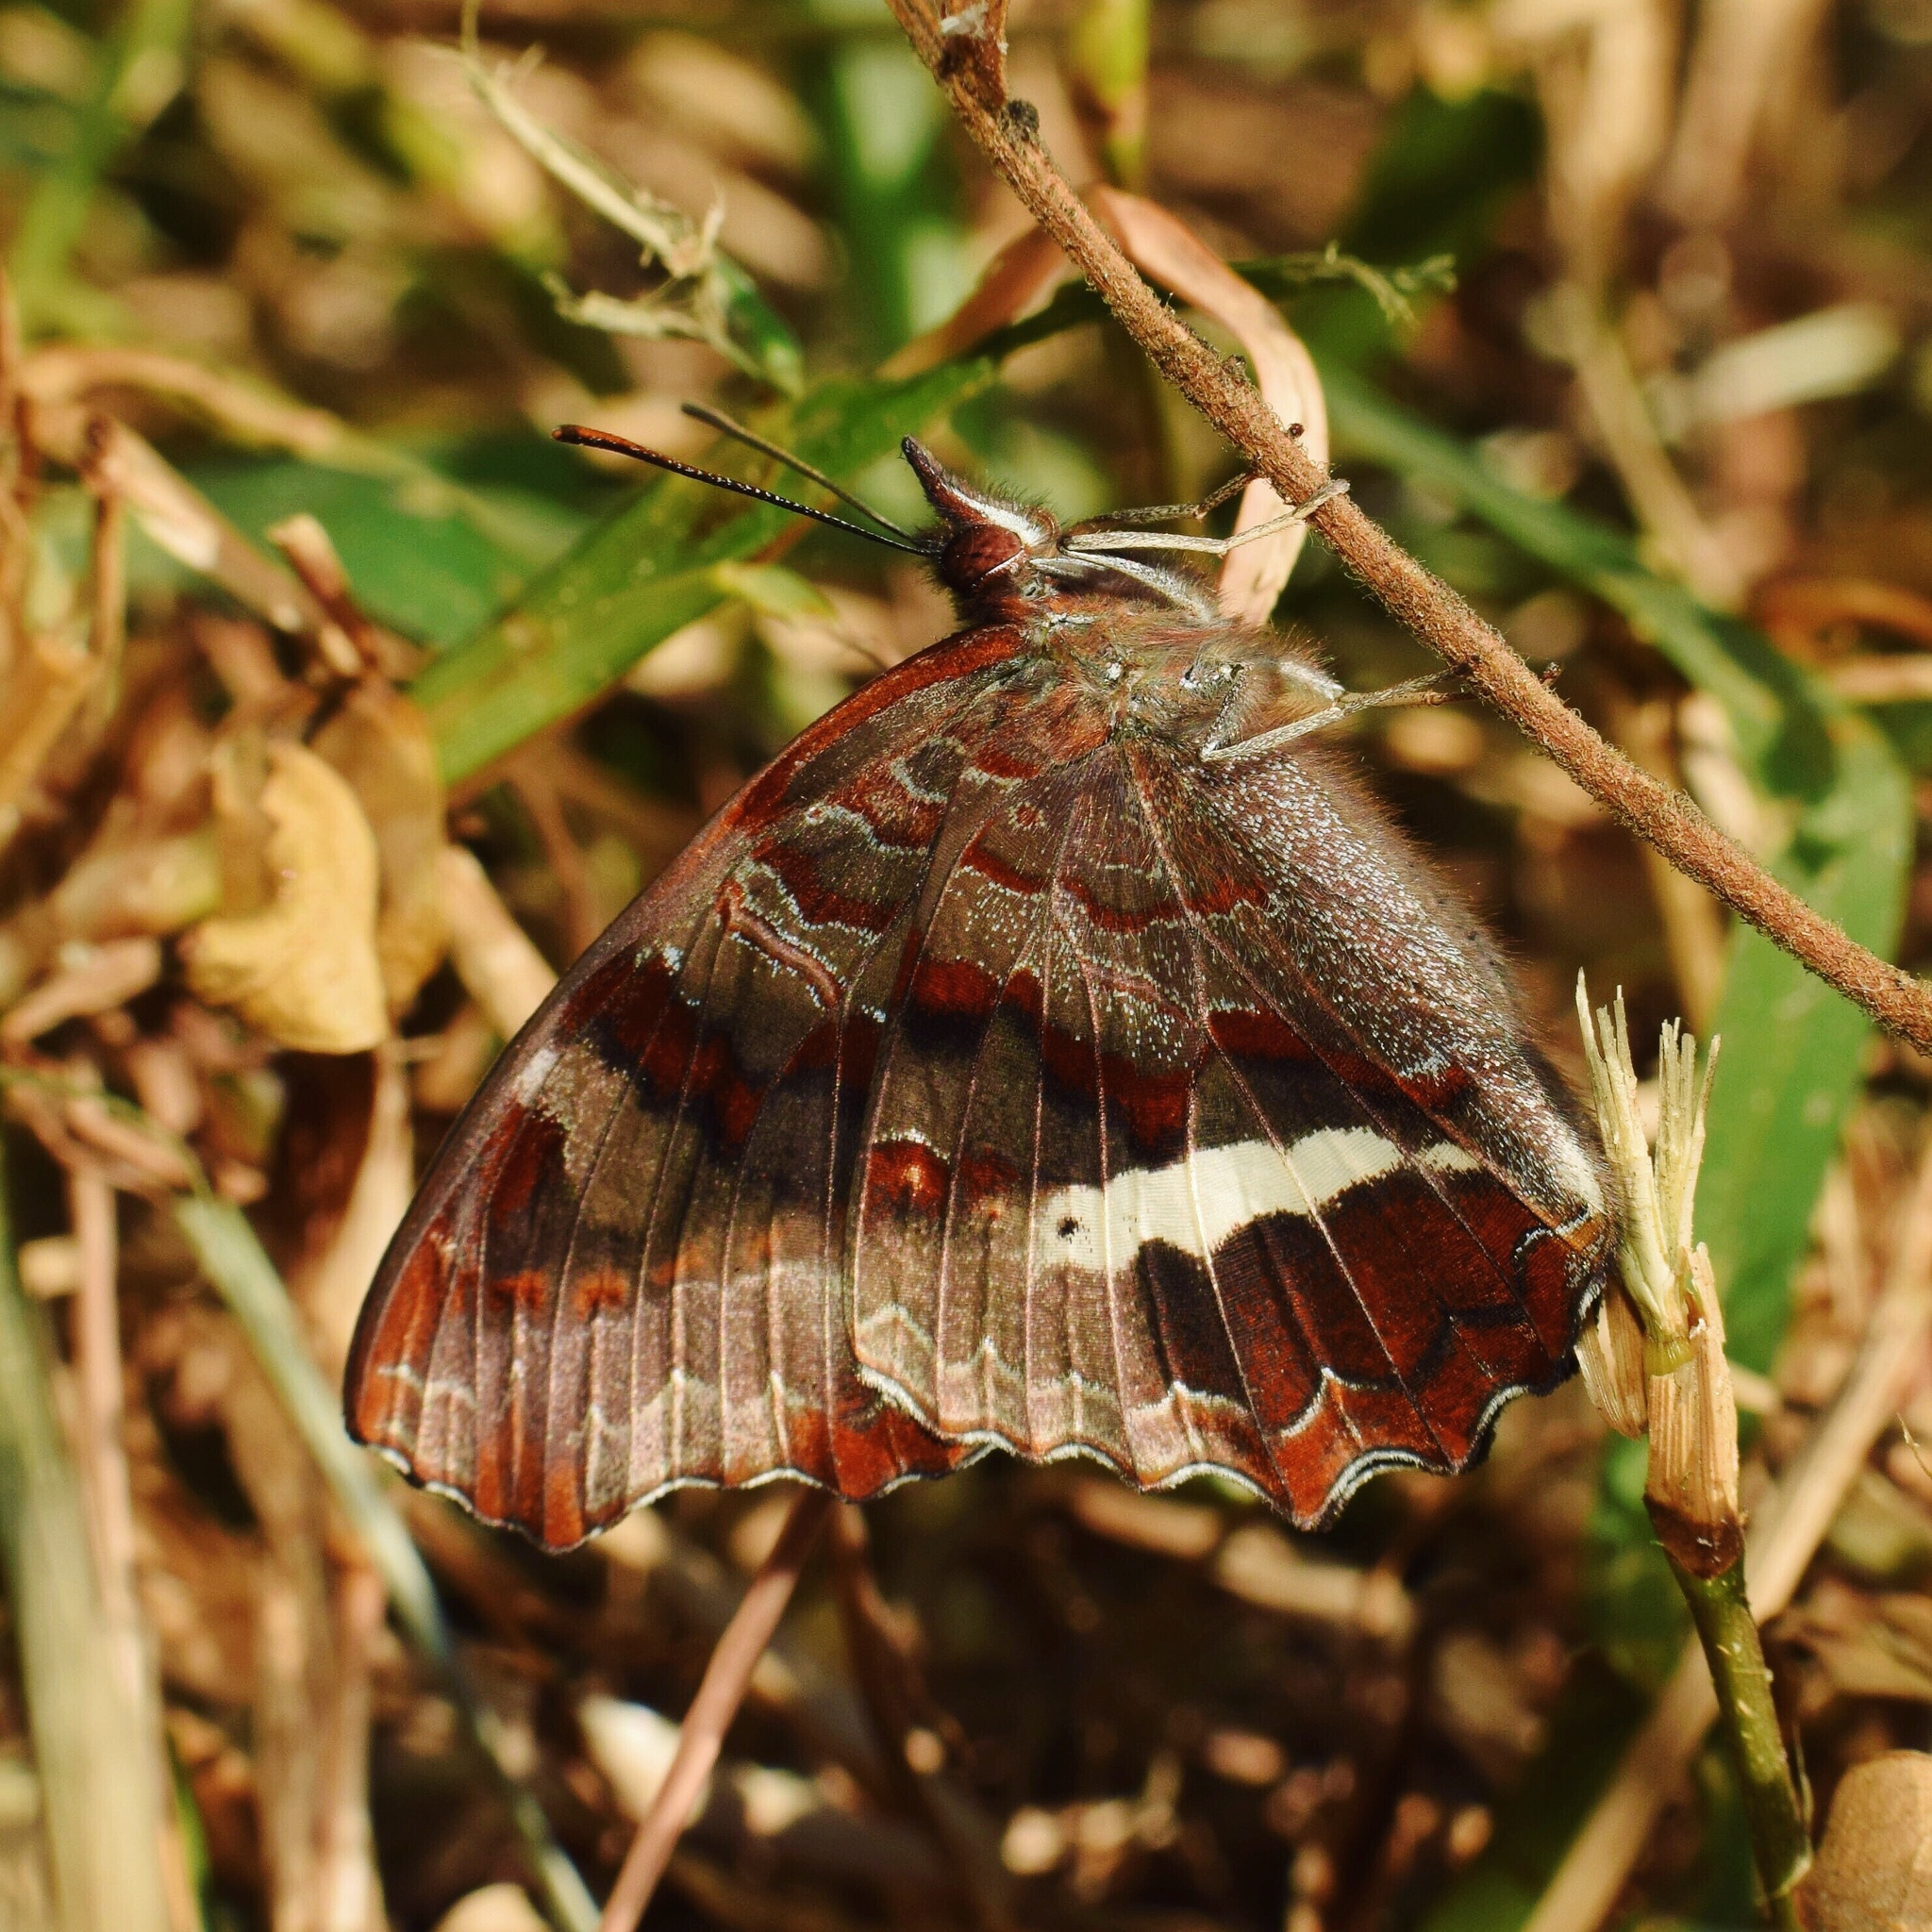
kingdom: Animalia
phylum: Arthropoda
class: Insecta
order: Lepidoptera
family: Nymphalidae
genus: Eurytela
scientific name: Eurytela hiarbas
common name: Pied piper
